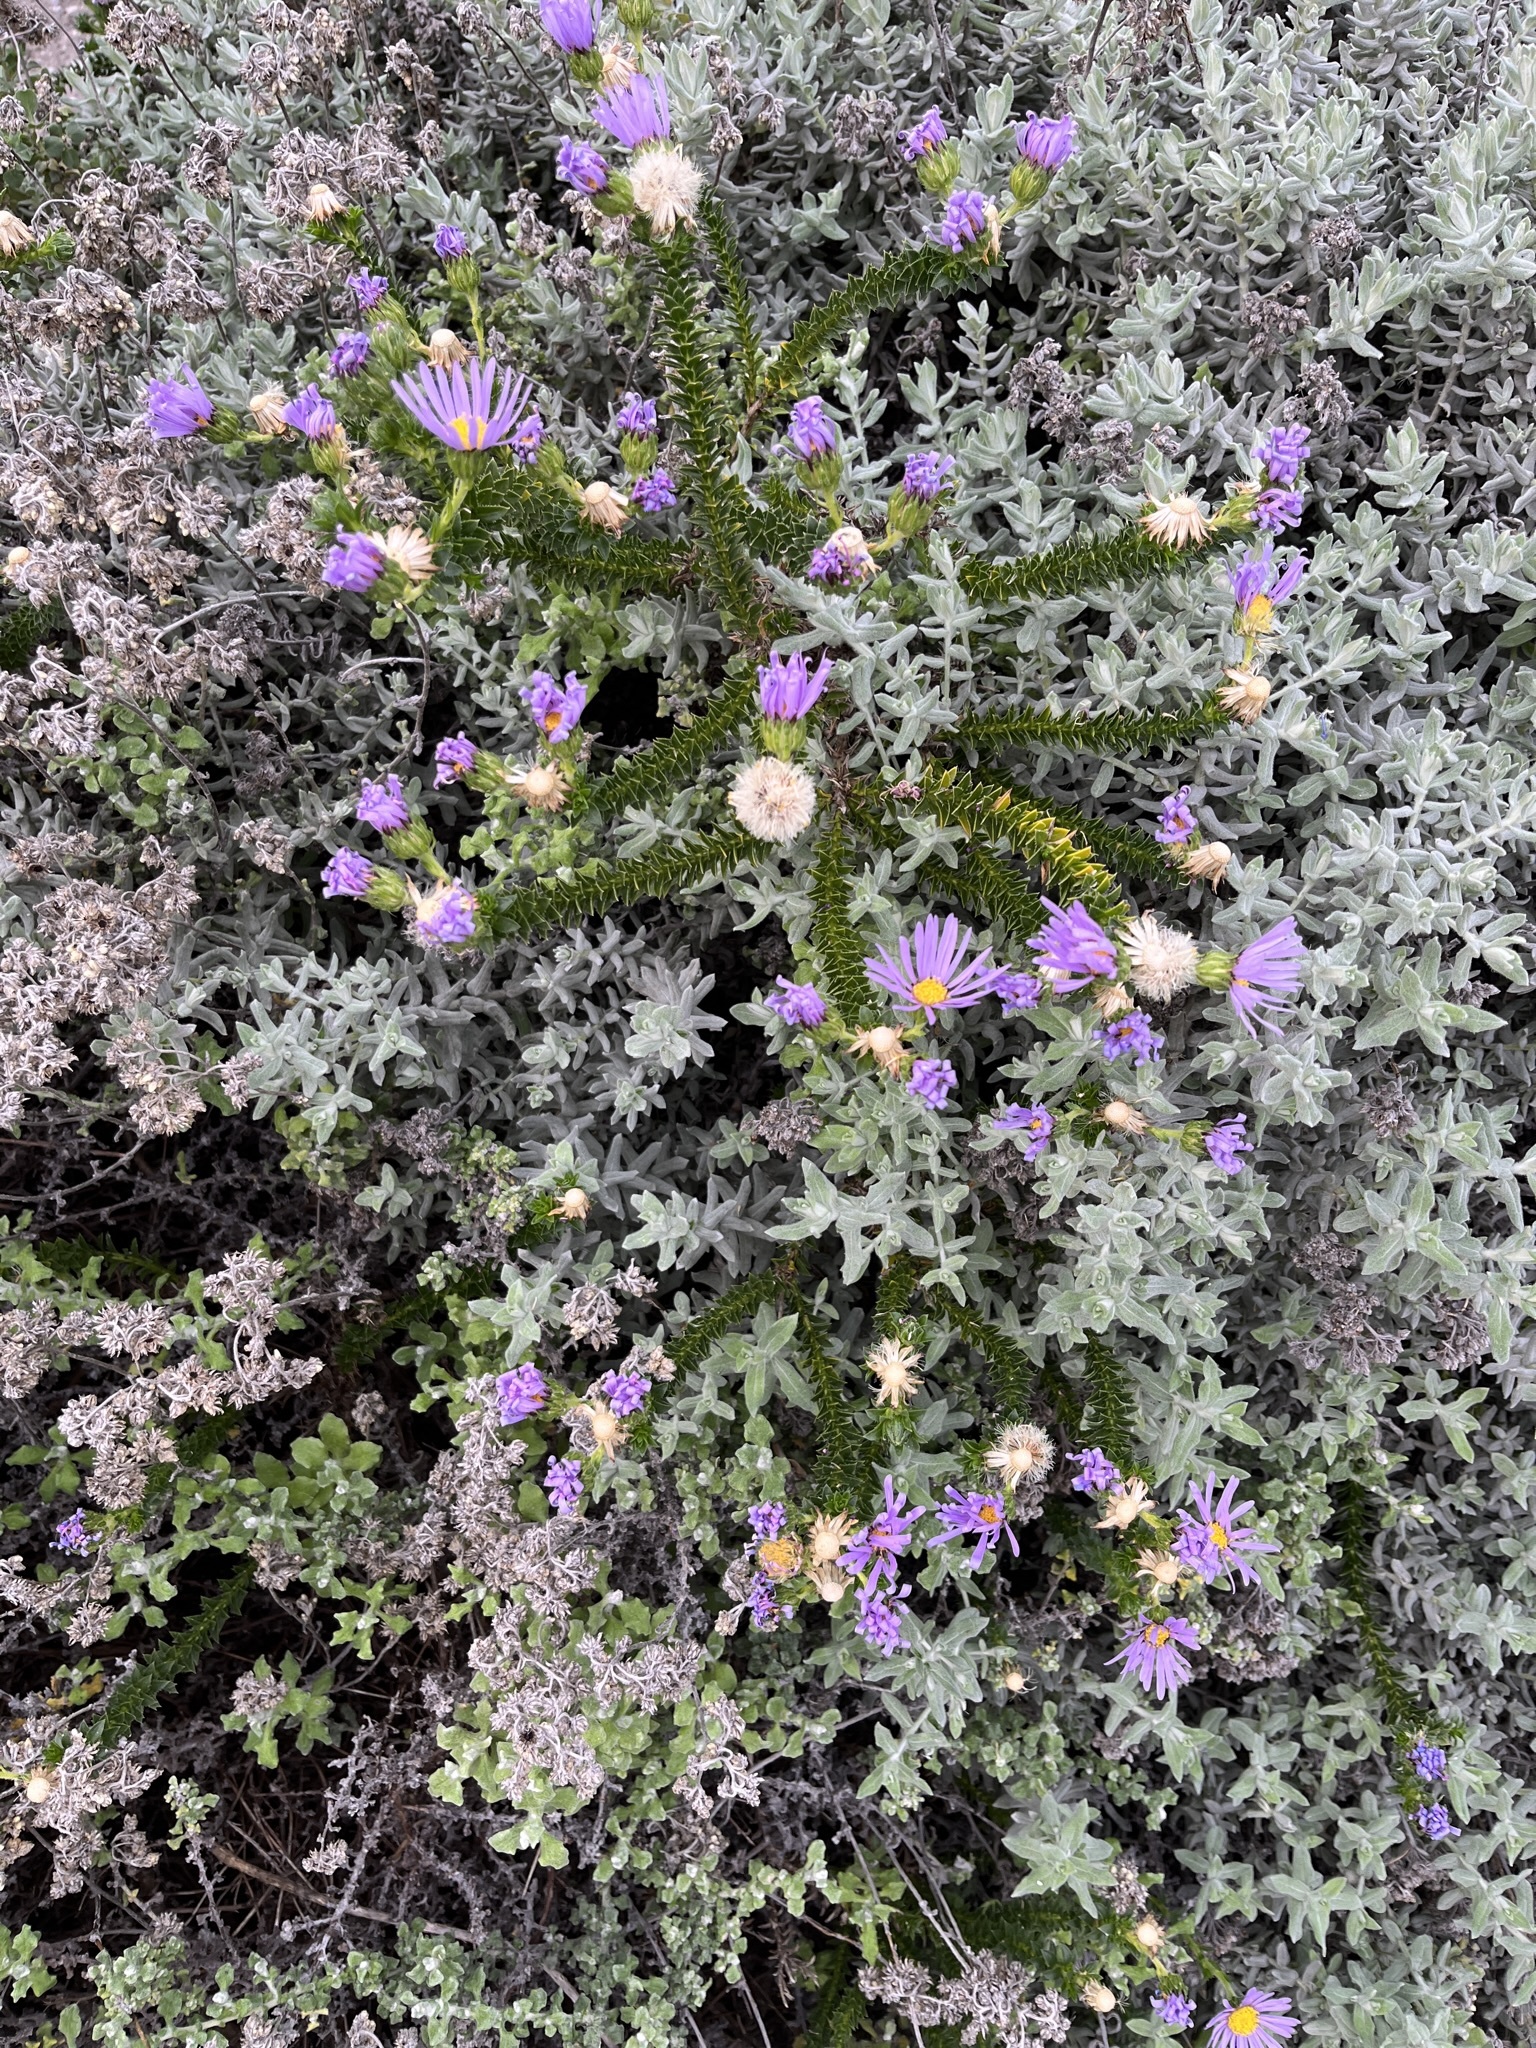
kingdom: Plantae
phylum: Tracheophyta
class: Magnoliopsida
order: Asterales
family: Asteraceae
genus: Felicia
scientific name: Felicia echinata
